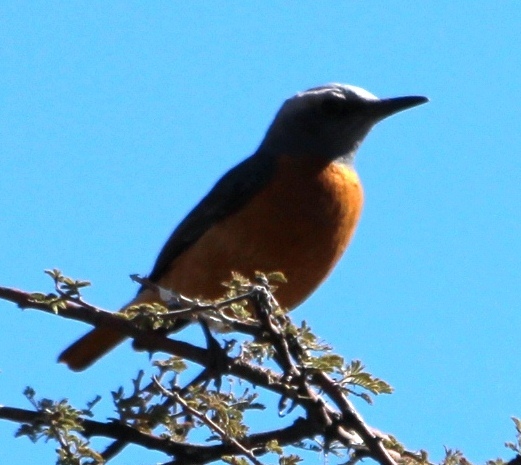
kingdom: Animalia
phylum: Chordata
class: Aves
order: Passeriformes
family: Muscicapidae
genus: Monticola
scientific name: Monticola brevipes
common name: Short-toed rock thrush
